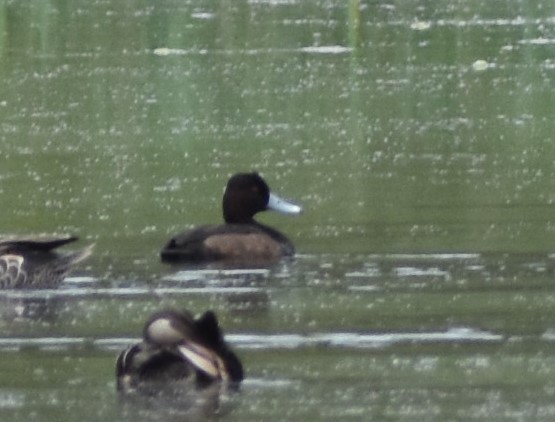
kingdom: Animalia
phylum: Chordata
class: Aves
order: Anseriformes
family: Anatidae
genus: Netta
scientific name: Netta erythrophthalma
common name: Southern pochard
